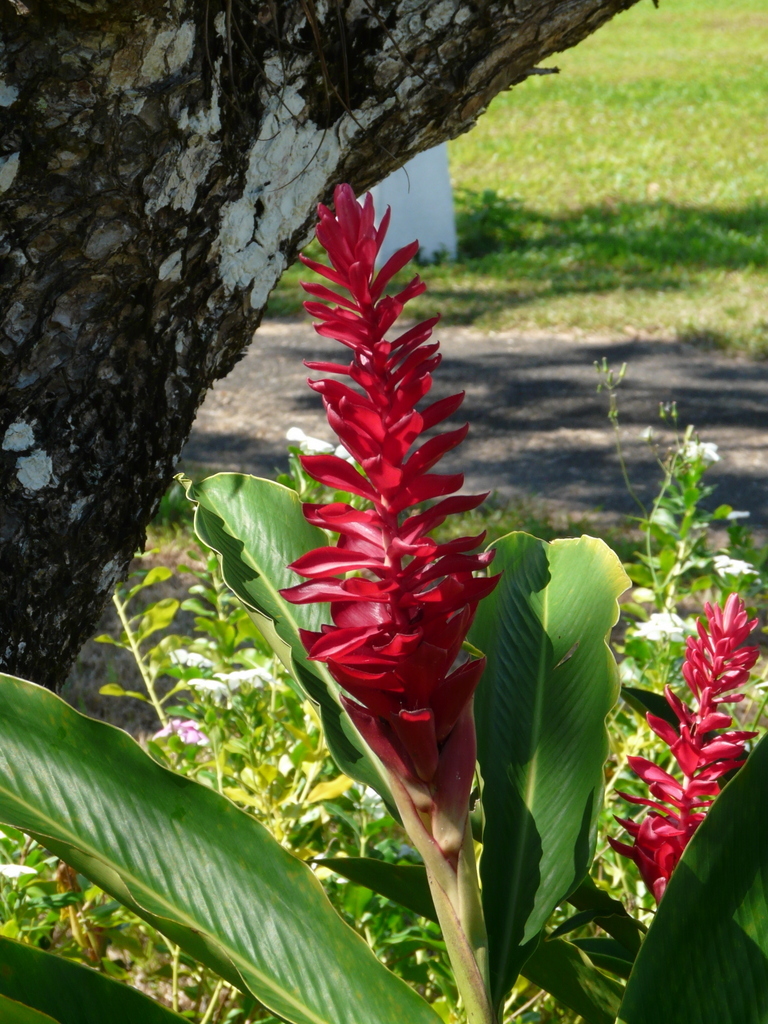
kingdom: Plantae
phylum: Tracheophyta
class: Liliopsida
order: Zingiberales
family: Zingiberaceae
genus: Alpinia
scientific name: Alpinia purpurata
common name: Red ginger
